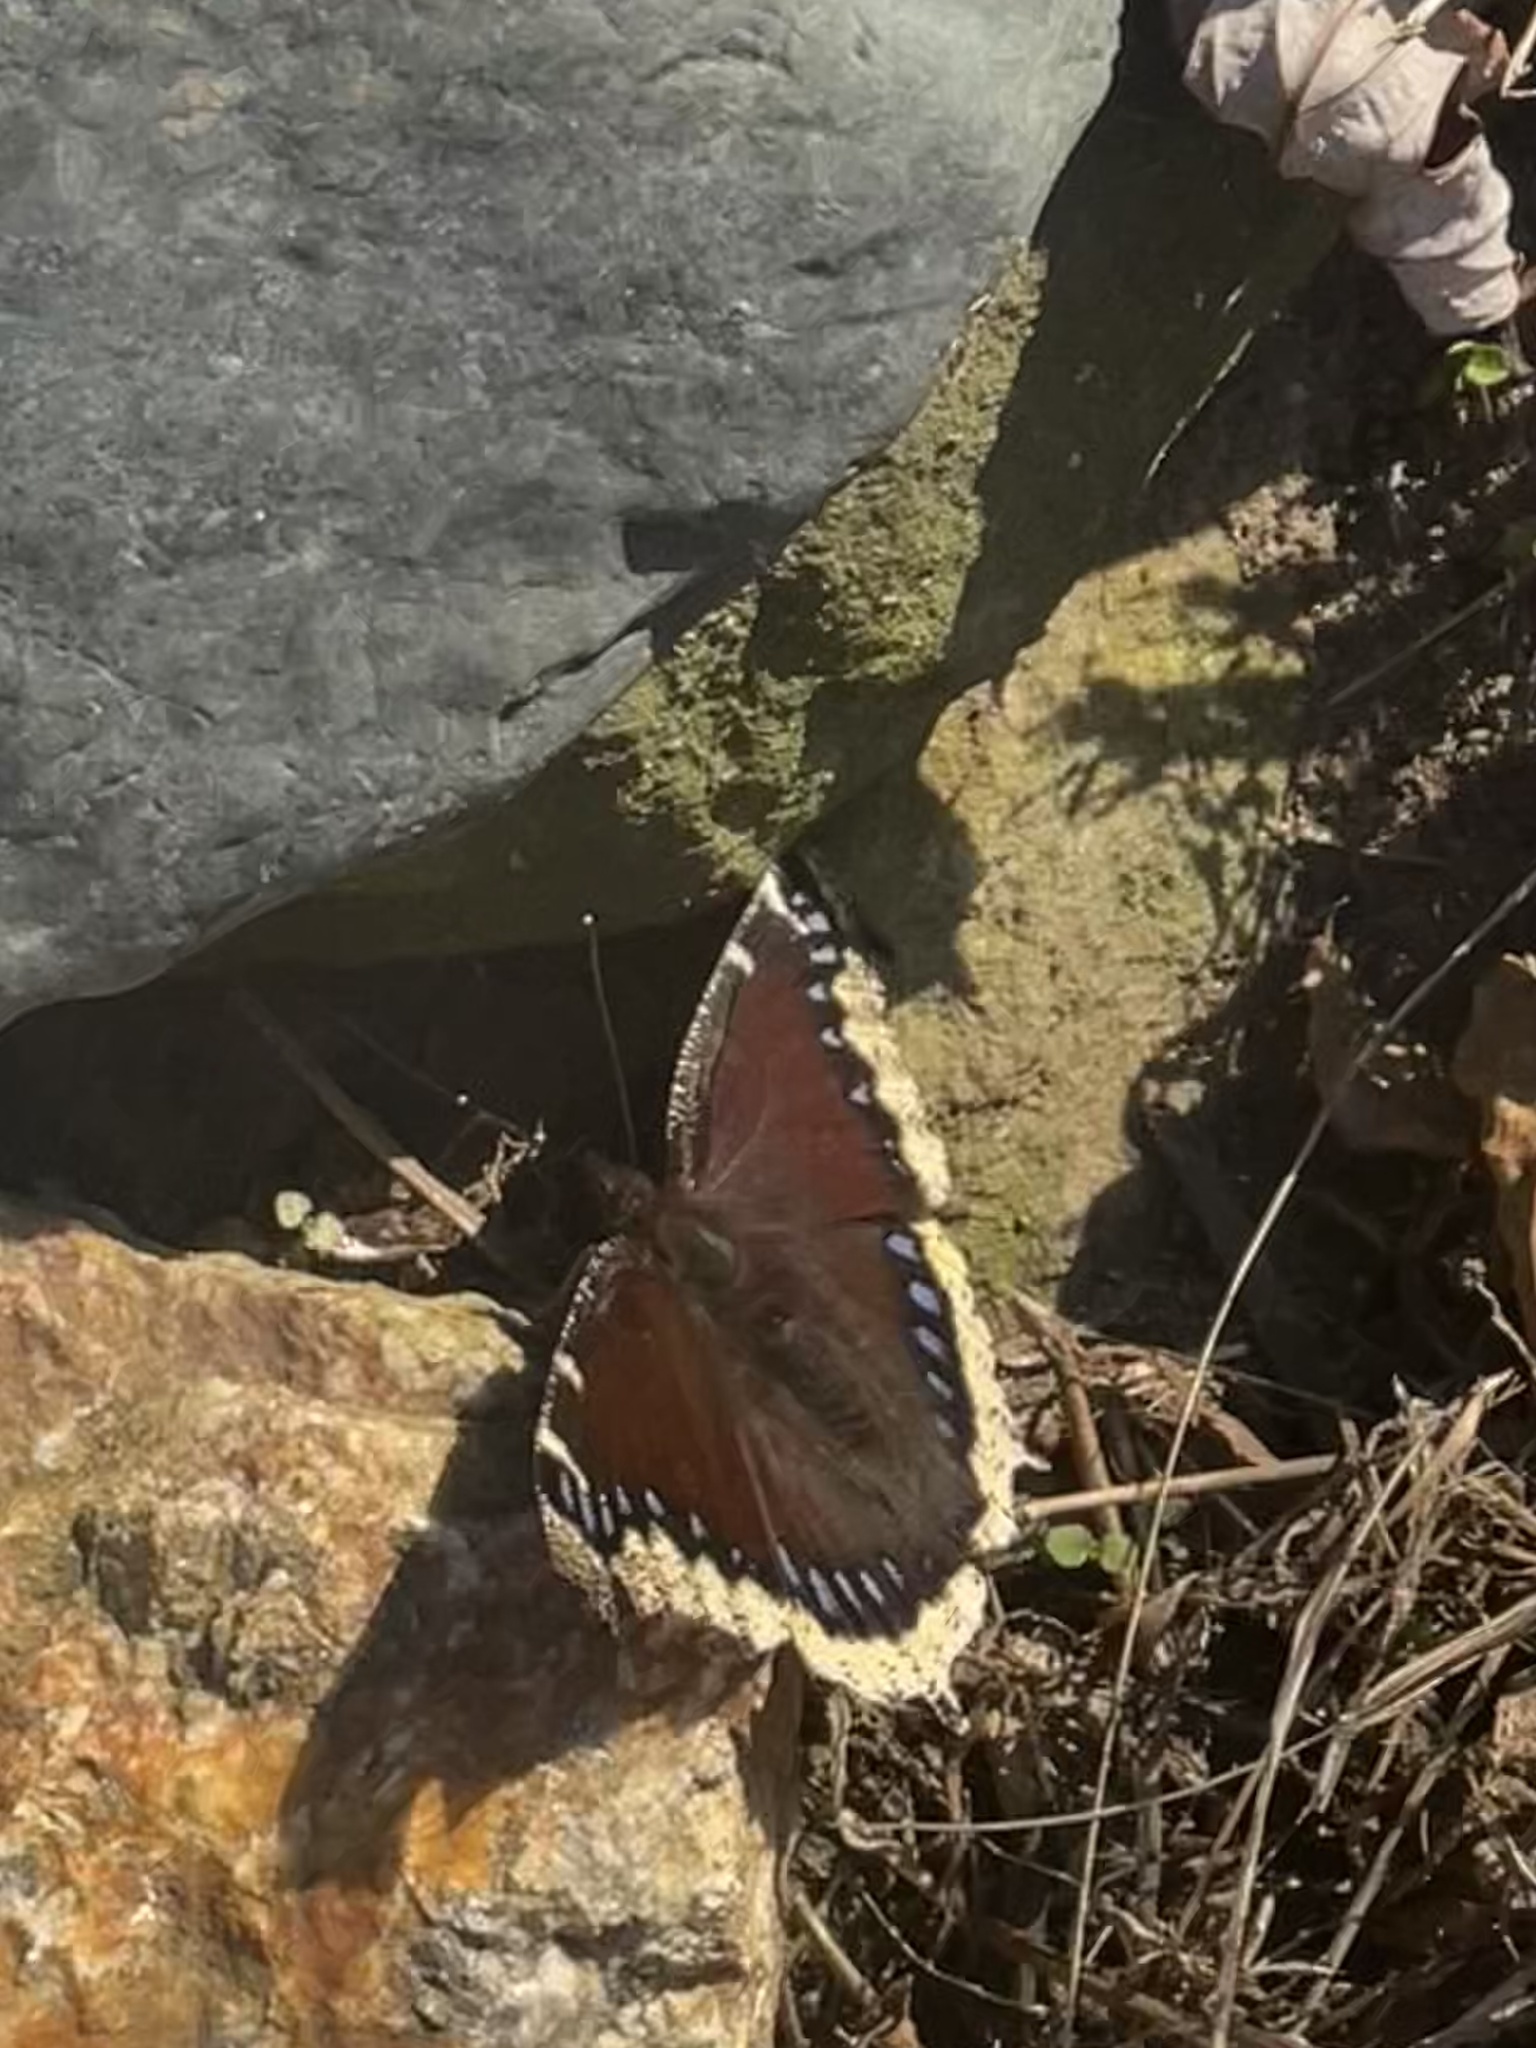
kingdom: Animalia
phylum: Arthropoda
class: Insecta
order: Lepidoptera
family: Nymphalidae
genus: Nymphalis
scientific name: Nymphalis antiopa
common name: Camberwell beauty
